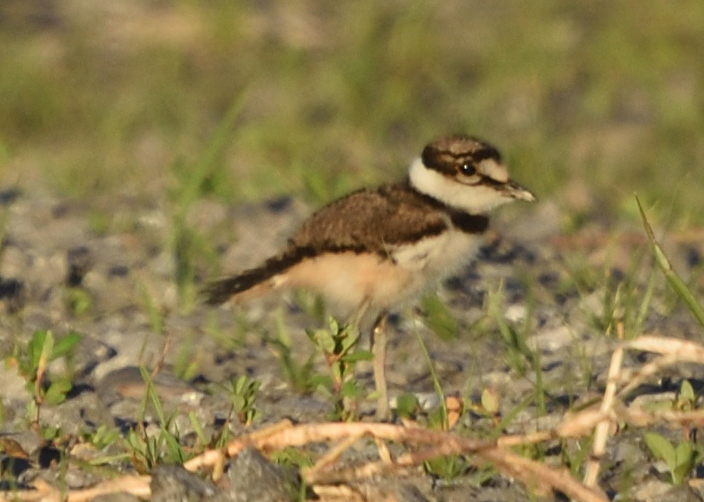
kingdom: Animalia
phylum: Chordata
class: Aves
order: Charadriiformes
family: Charadriidae
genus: Charadrius
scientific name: Charadrius vociferus
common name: Killdeer
